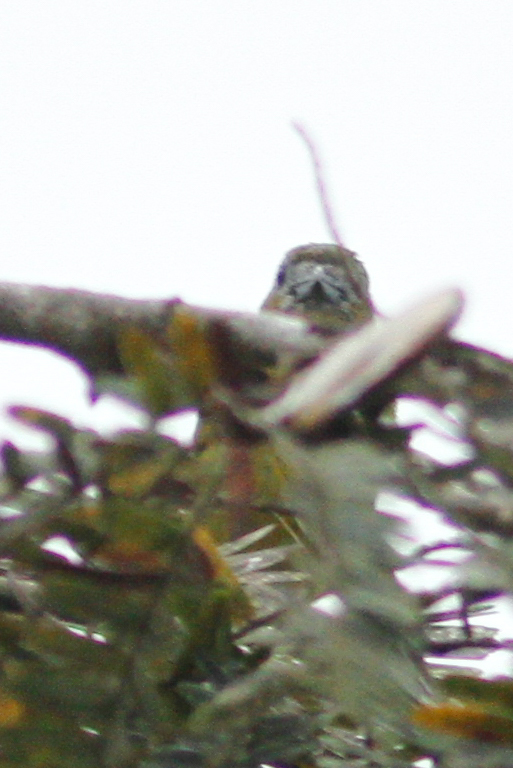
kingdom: Animalia
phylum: Chordata
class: Aves
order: Passeriformes
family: Fringillidae
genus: Euphonia
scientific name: Euphonia chrysopasta
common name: White-lored euphonia
